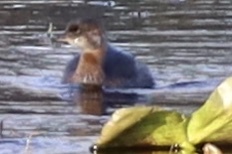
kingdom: Animalia
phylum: Chordata
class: Aves
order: Podicipediformes
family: Podicipedidae
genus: Podilymbus
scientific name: Podilymbus podiceps
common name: Pied-billed grebe
